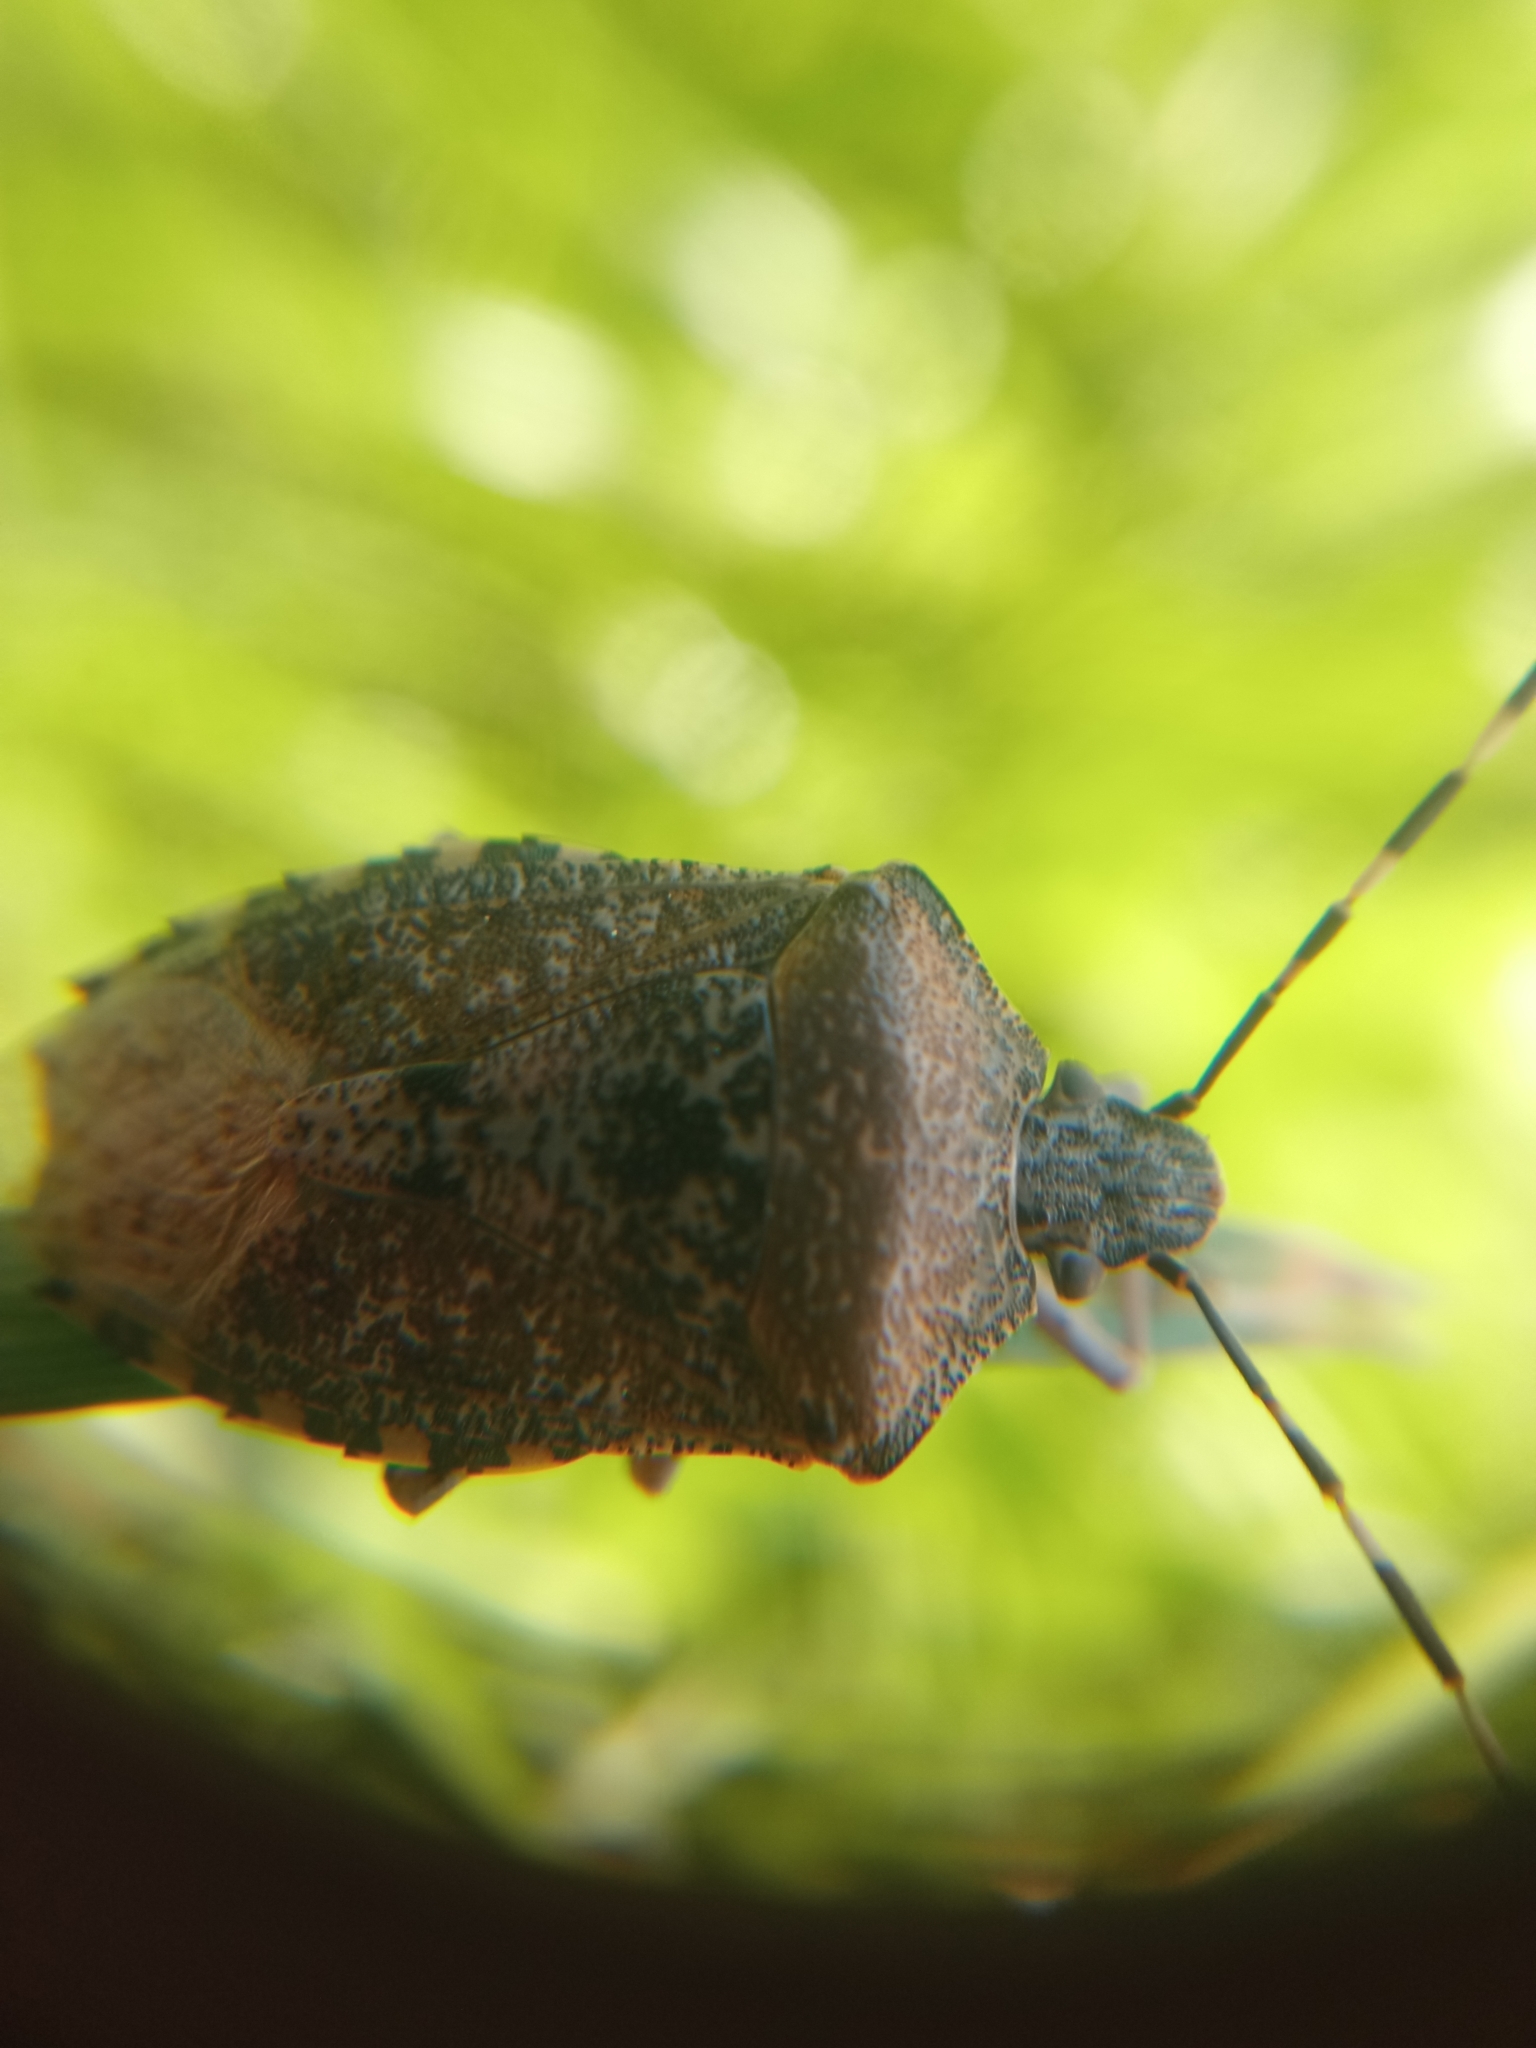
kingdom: Animalia
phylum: Arthropoda
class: Insecta
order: Hemiptera
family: Pentatomidae
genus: Rhaphigaster
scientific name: Rhaphigaster nebulosa
